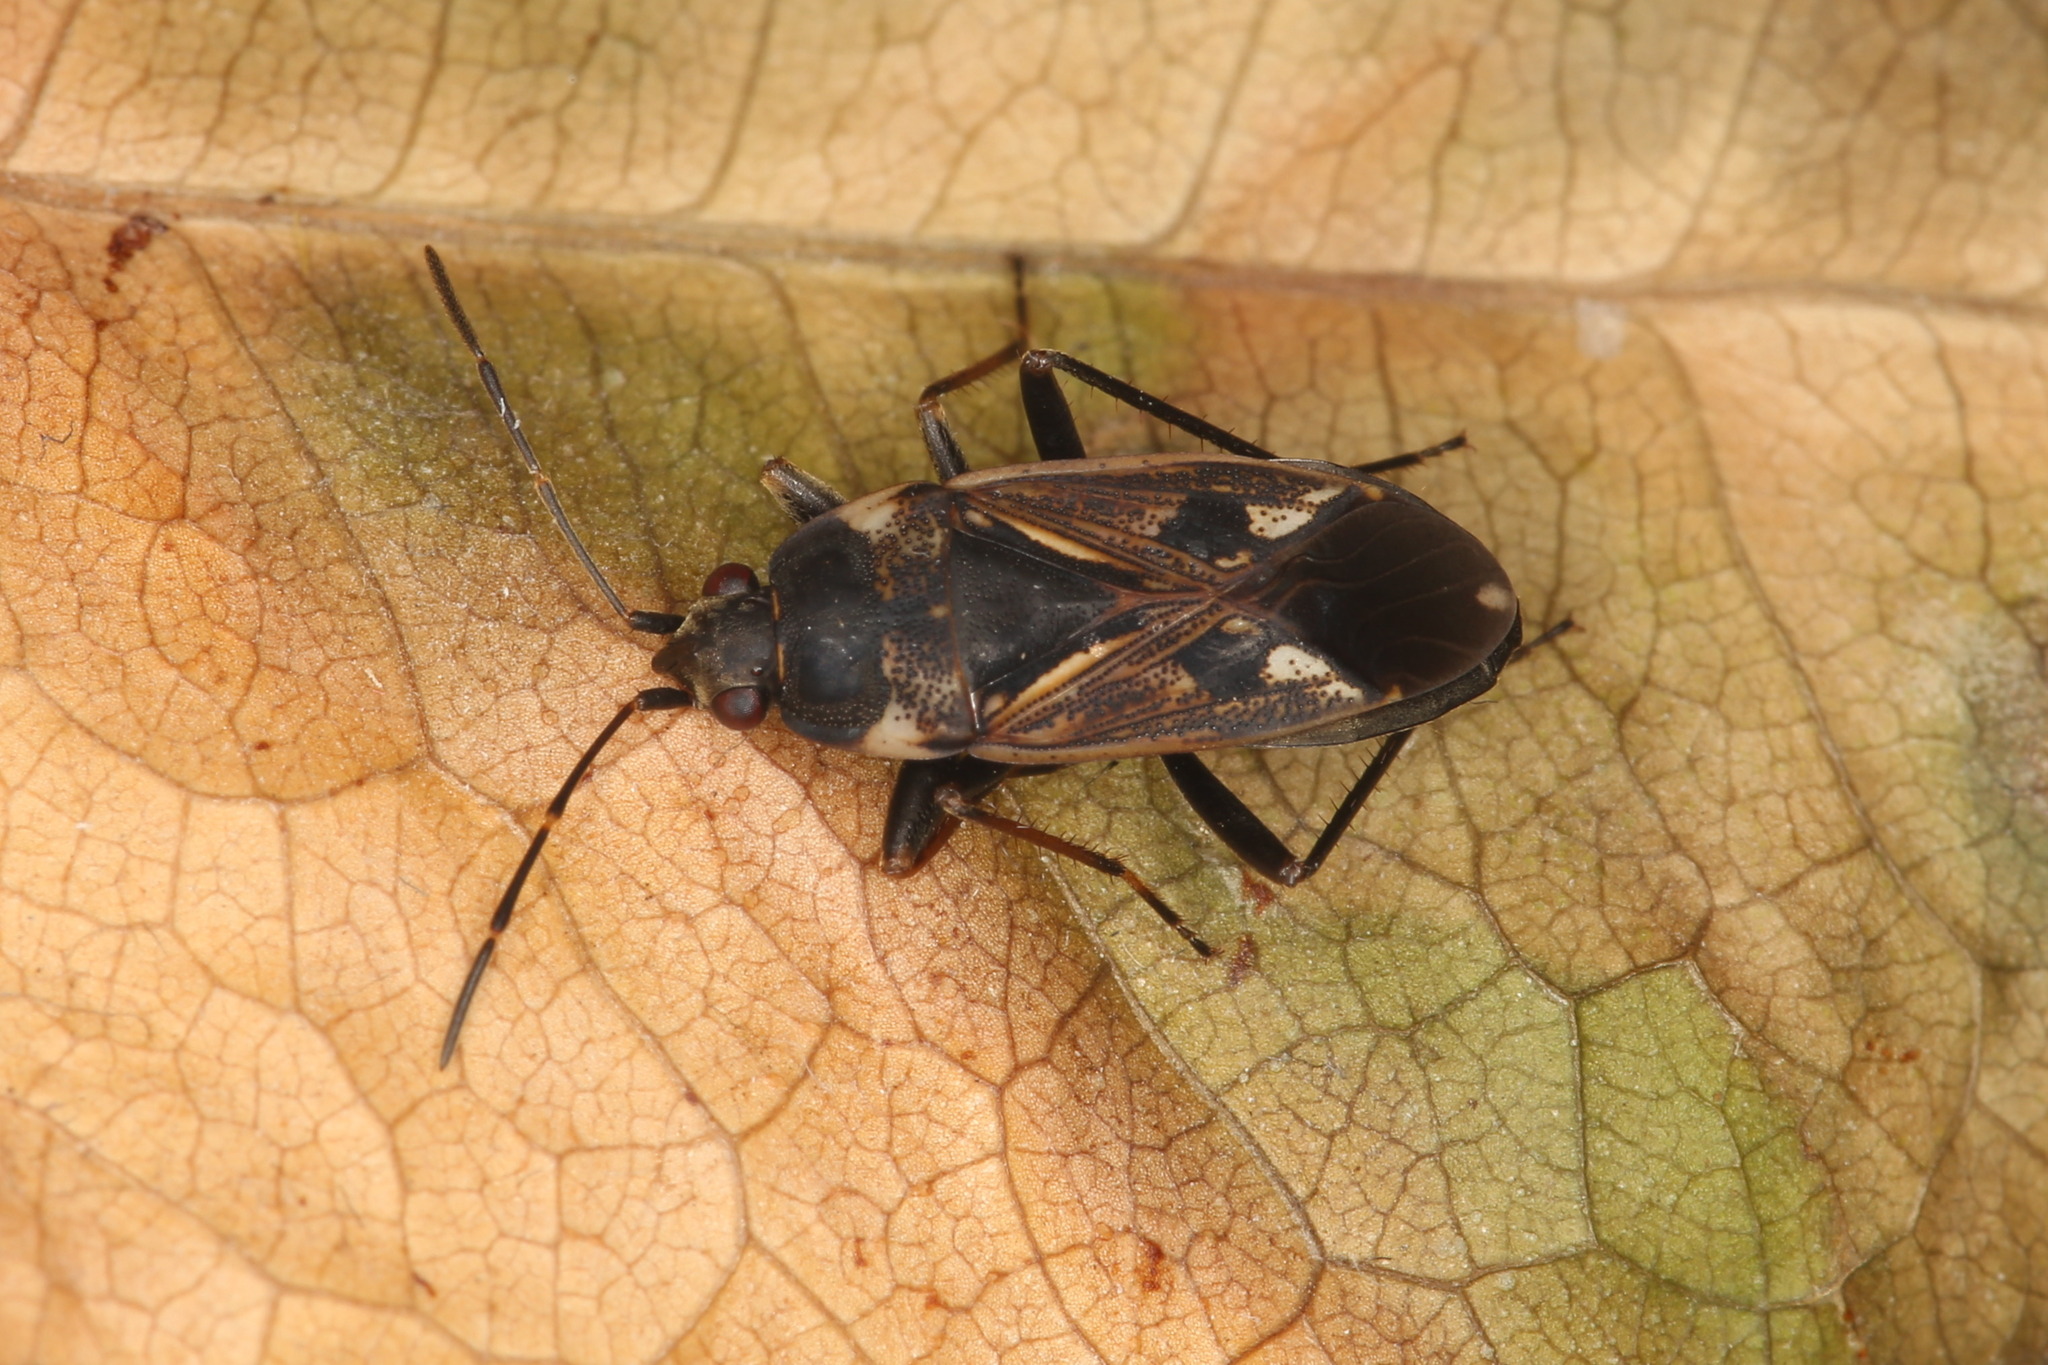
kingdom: Animalia
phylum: Arthropoda
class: Insecta
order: Hemiptera
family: Rhyparochromidae
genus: Rhyparochromus
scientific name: Rhyparochromus vulgaris
